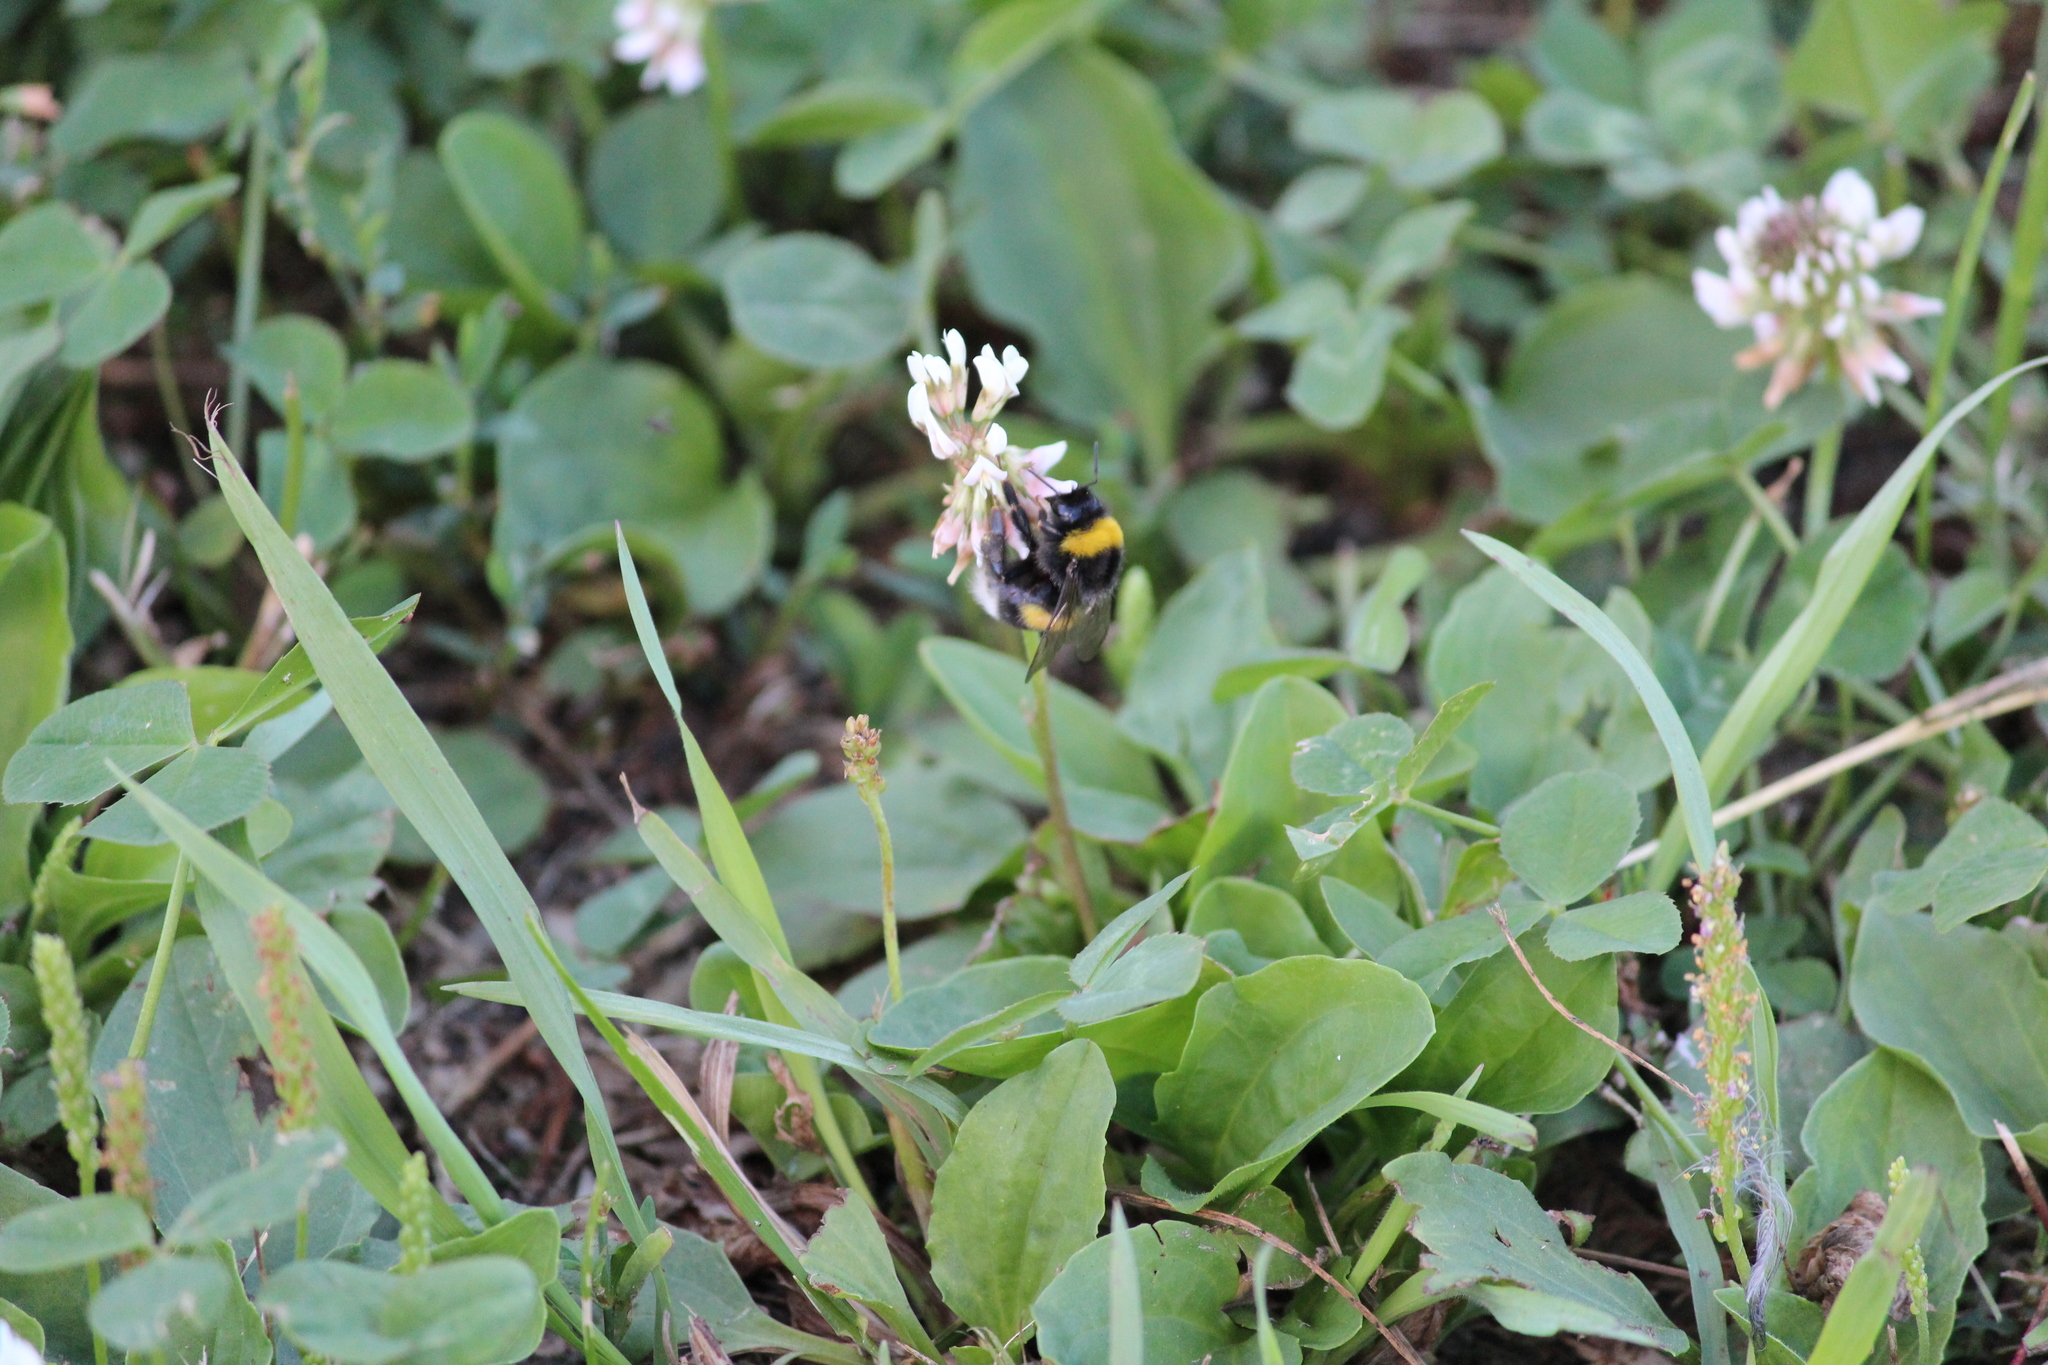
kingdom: Animalia
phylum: Arthropoda
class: Insecta
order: Hymenoptera
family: Apidae
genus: Bombus
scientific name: Bombus
